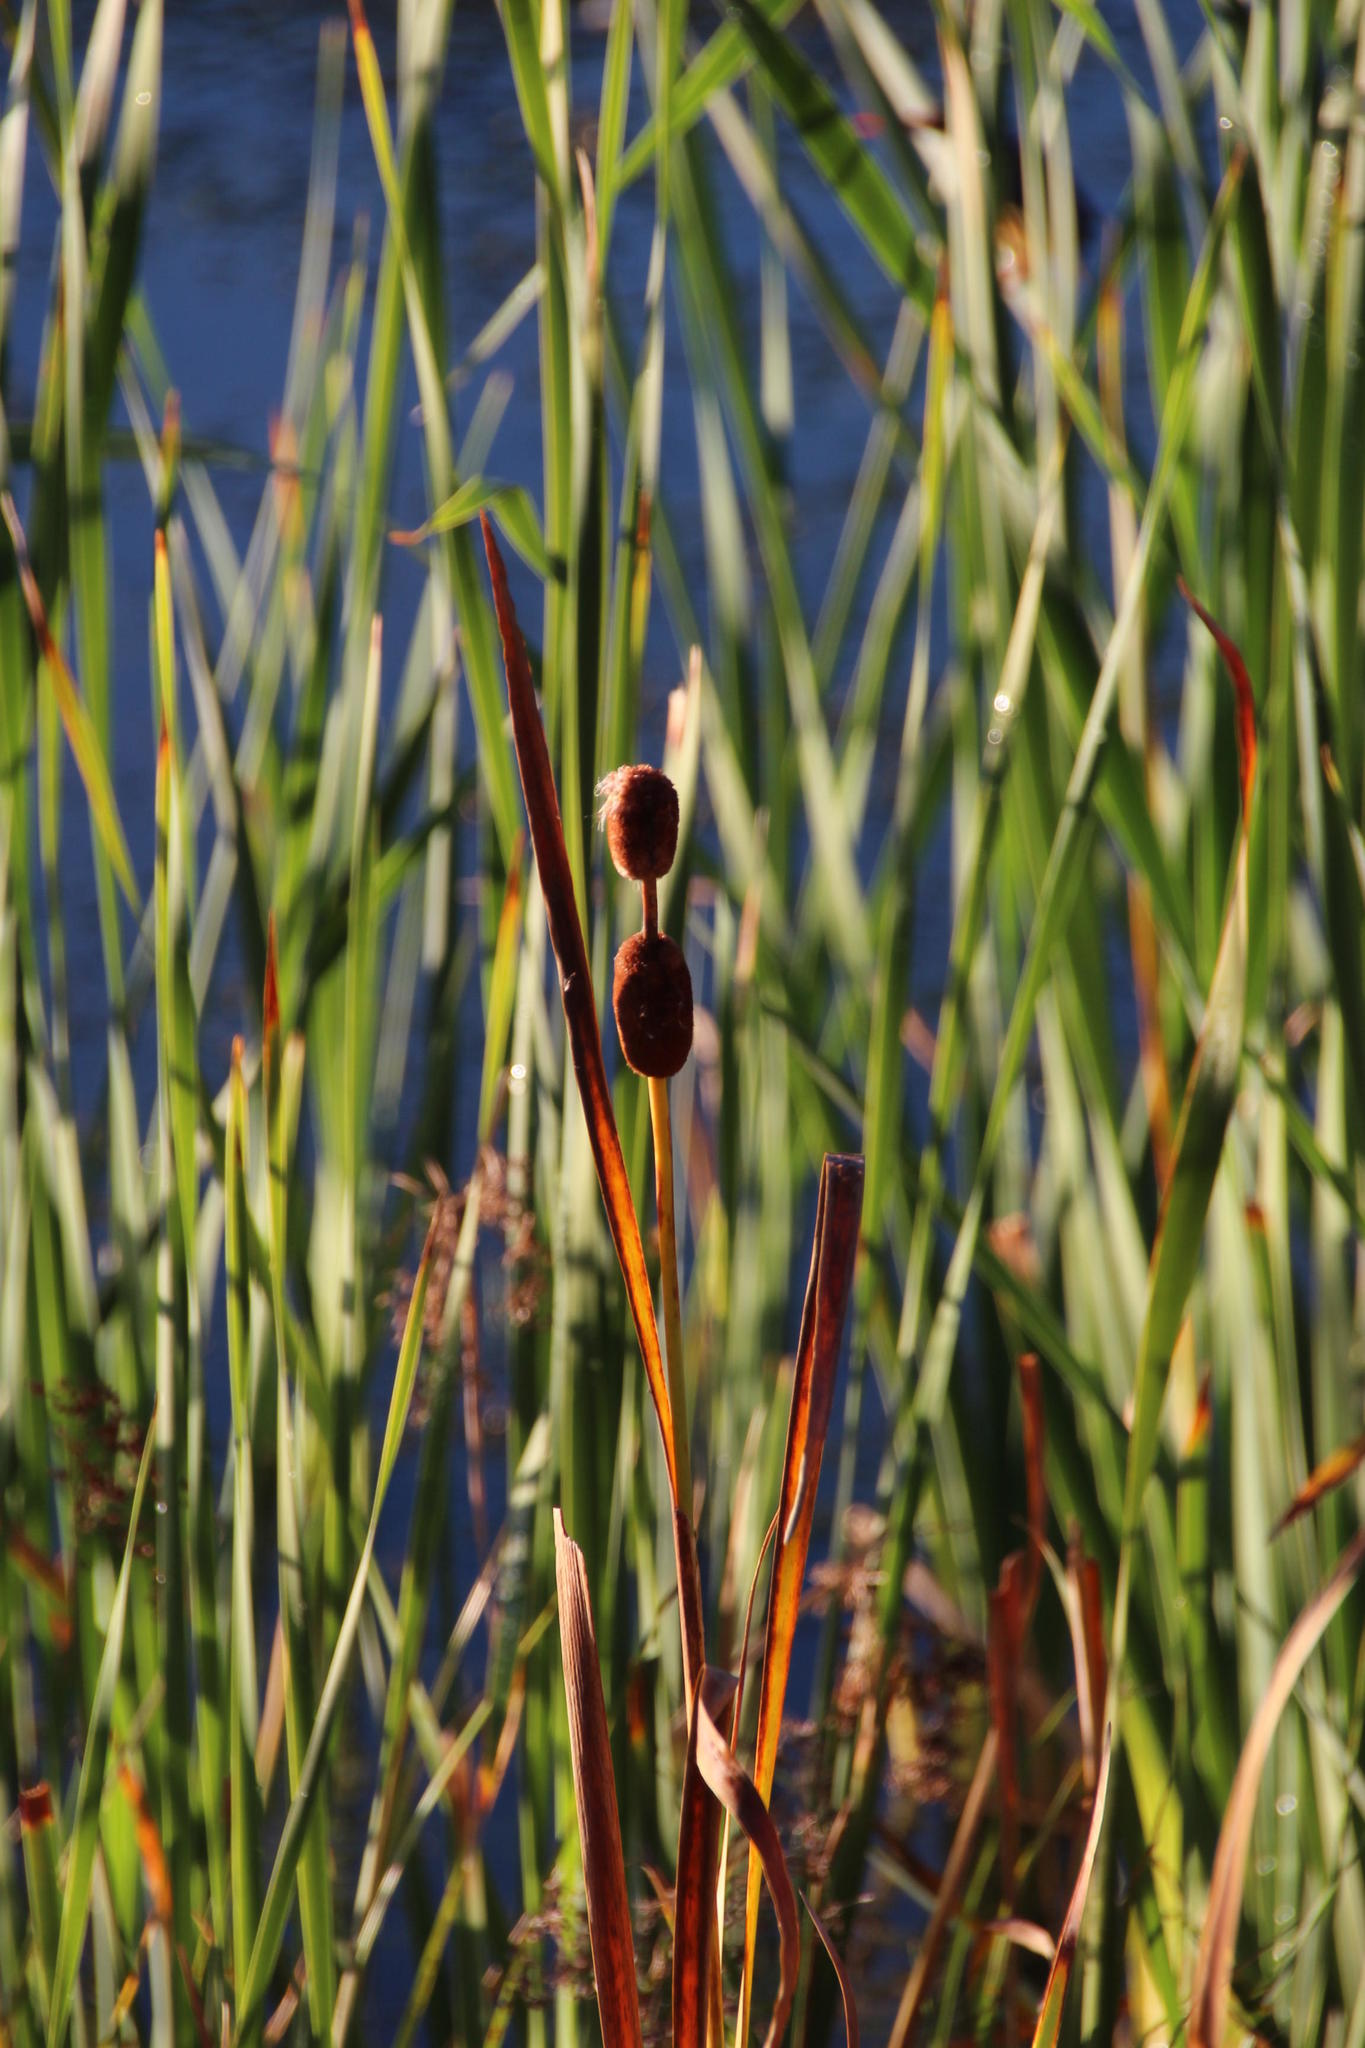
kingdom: Plantae
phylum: Tracheophyta
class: Liliopsida
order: Poales
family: Typhaceae
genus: Typha
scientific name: Typha capensis
